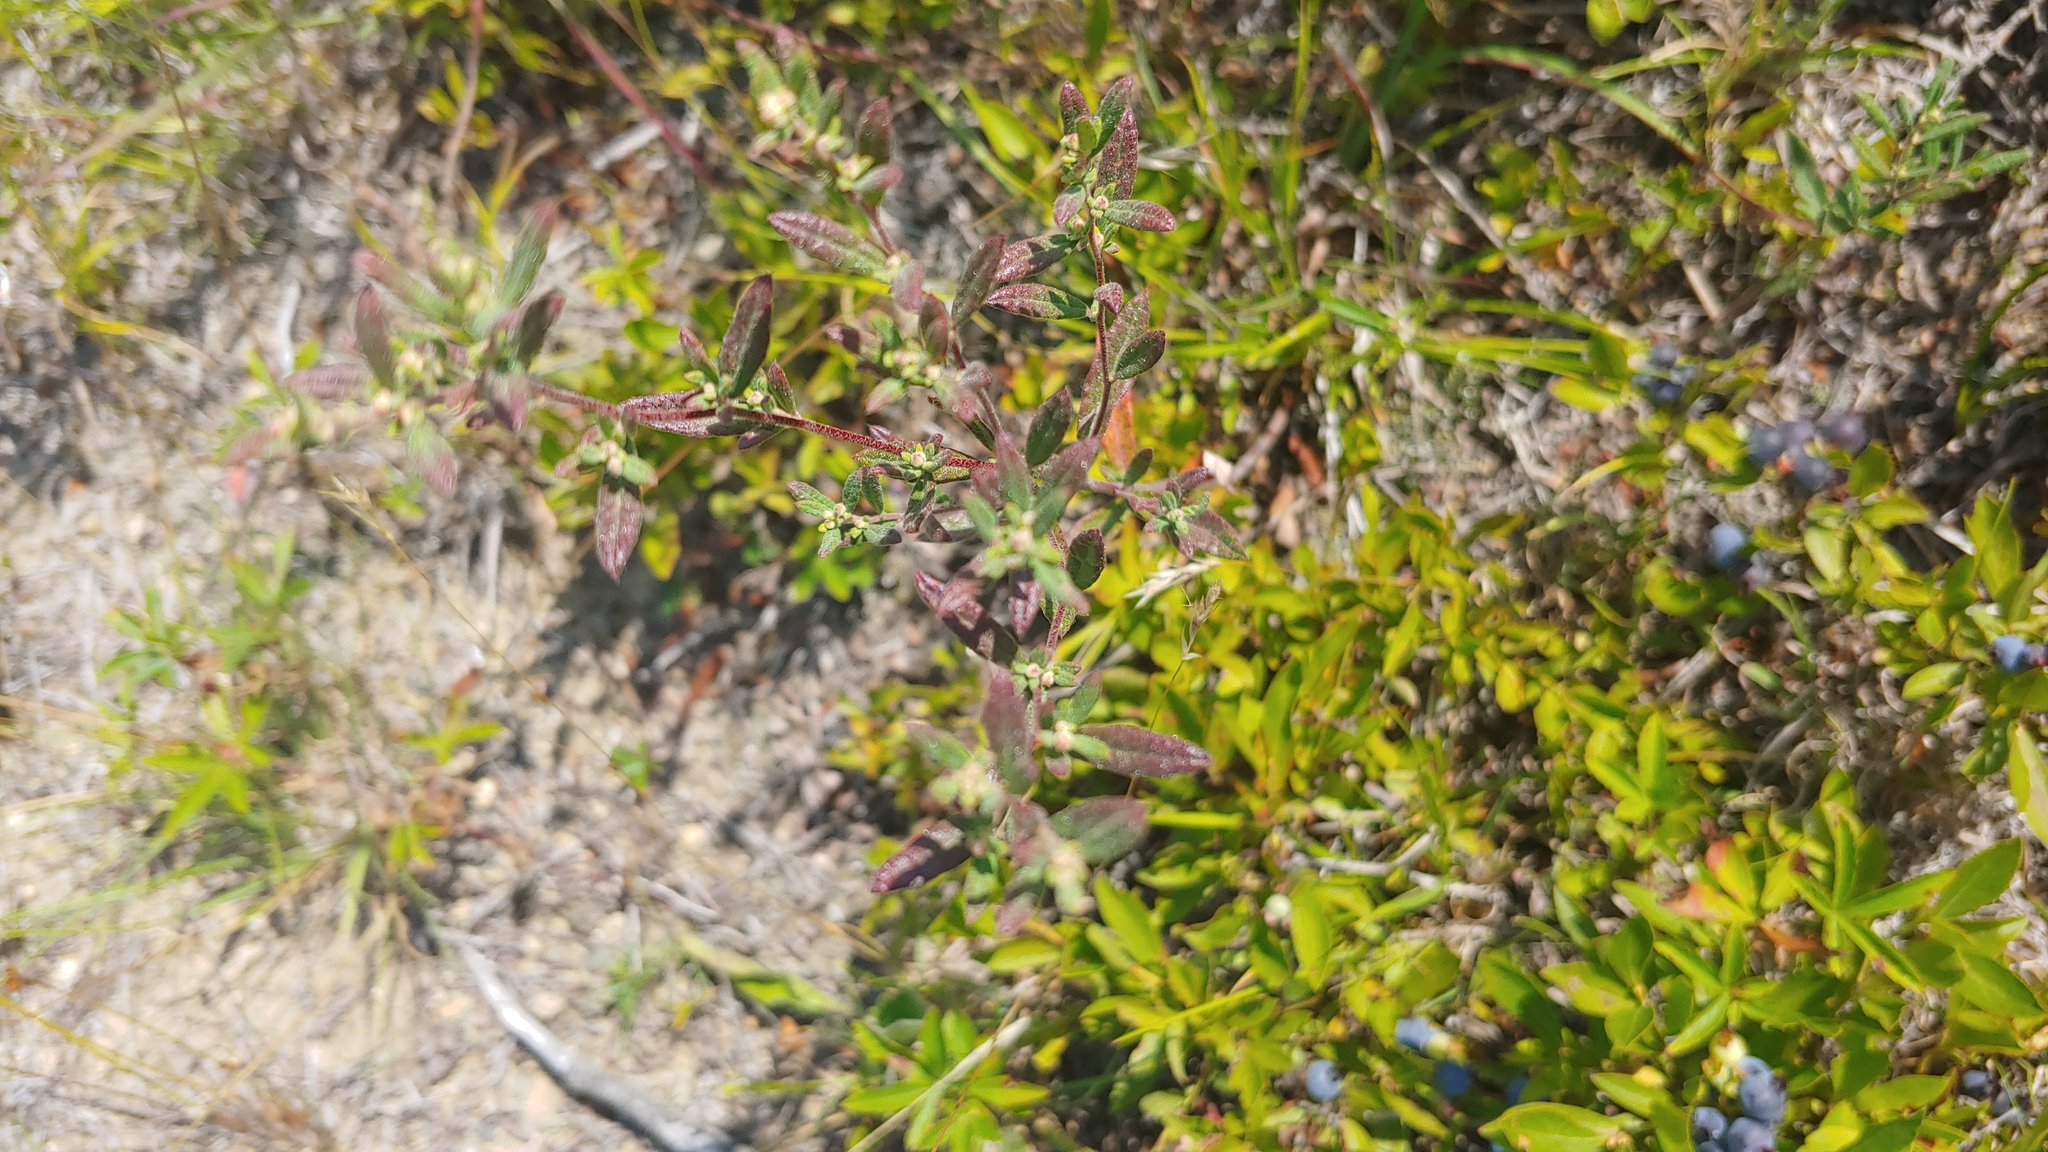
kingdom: Plantae
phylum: Tracheophyta
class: Magnoliopsida
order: Malvales
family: Cistaceae
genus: Crocanthemum
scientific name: Crocanthemum canadense
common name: Canada frostweed
